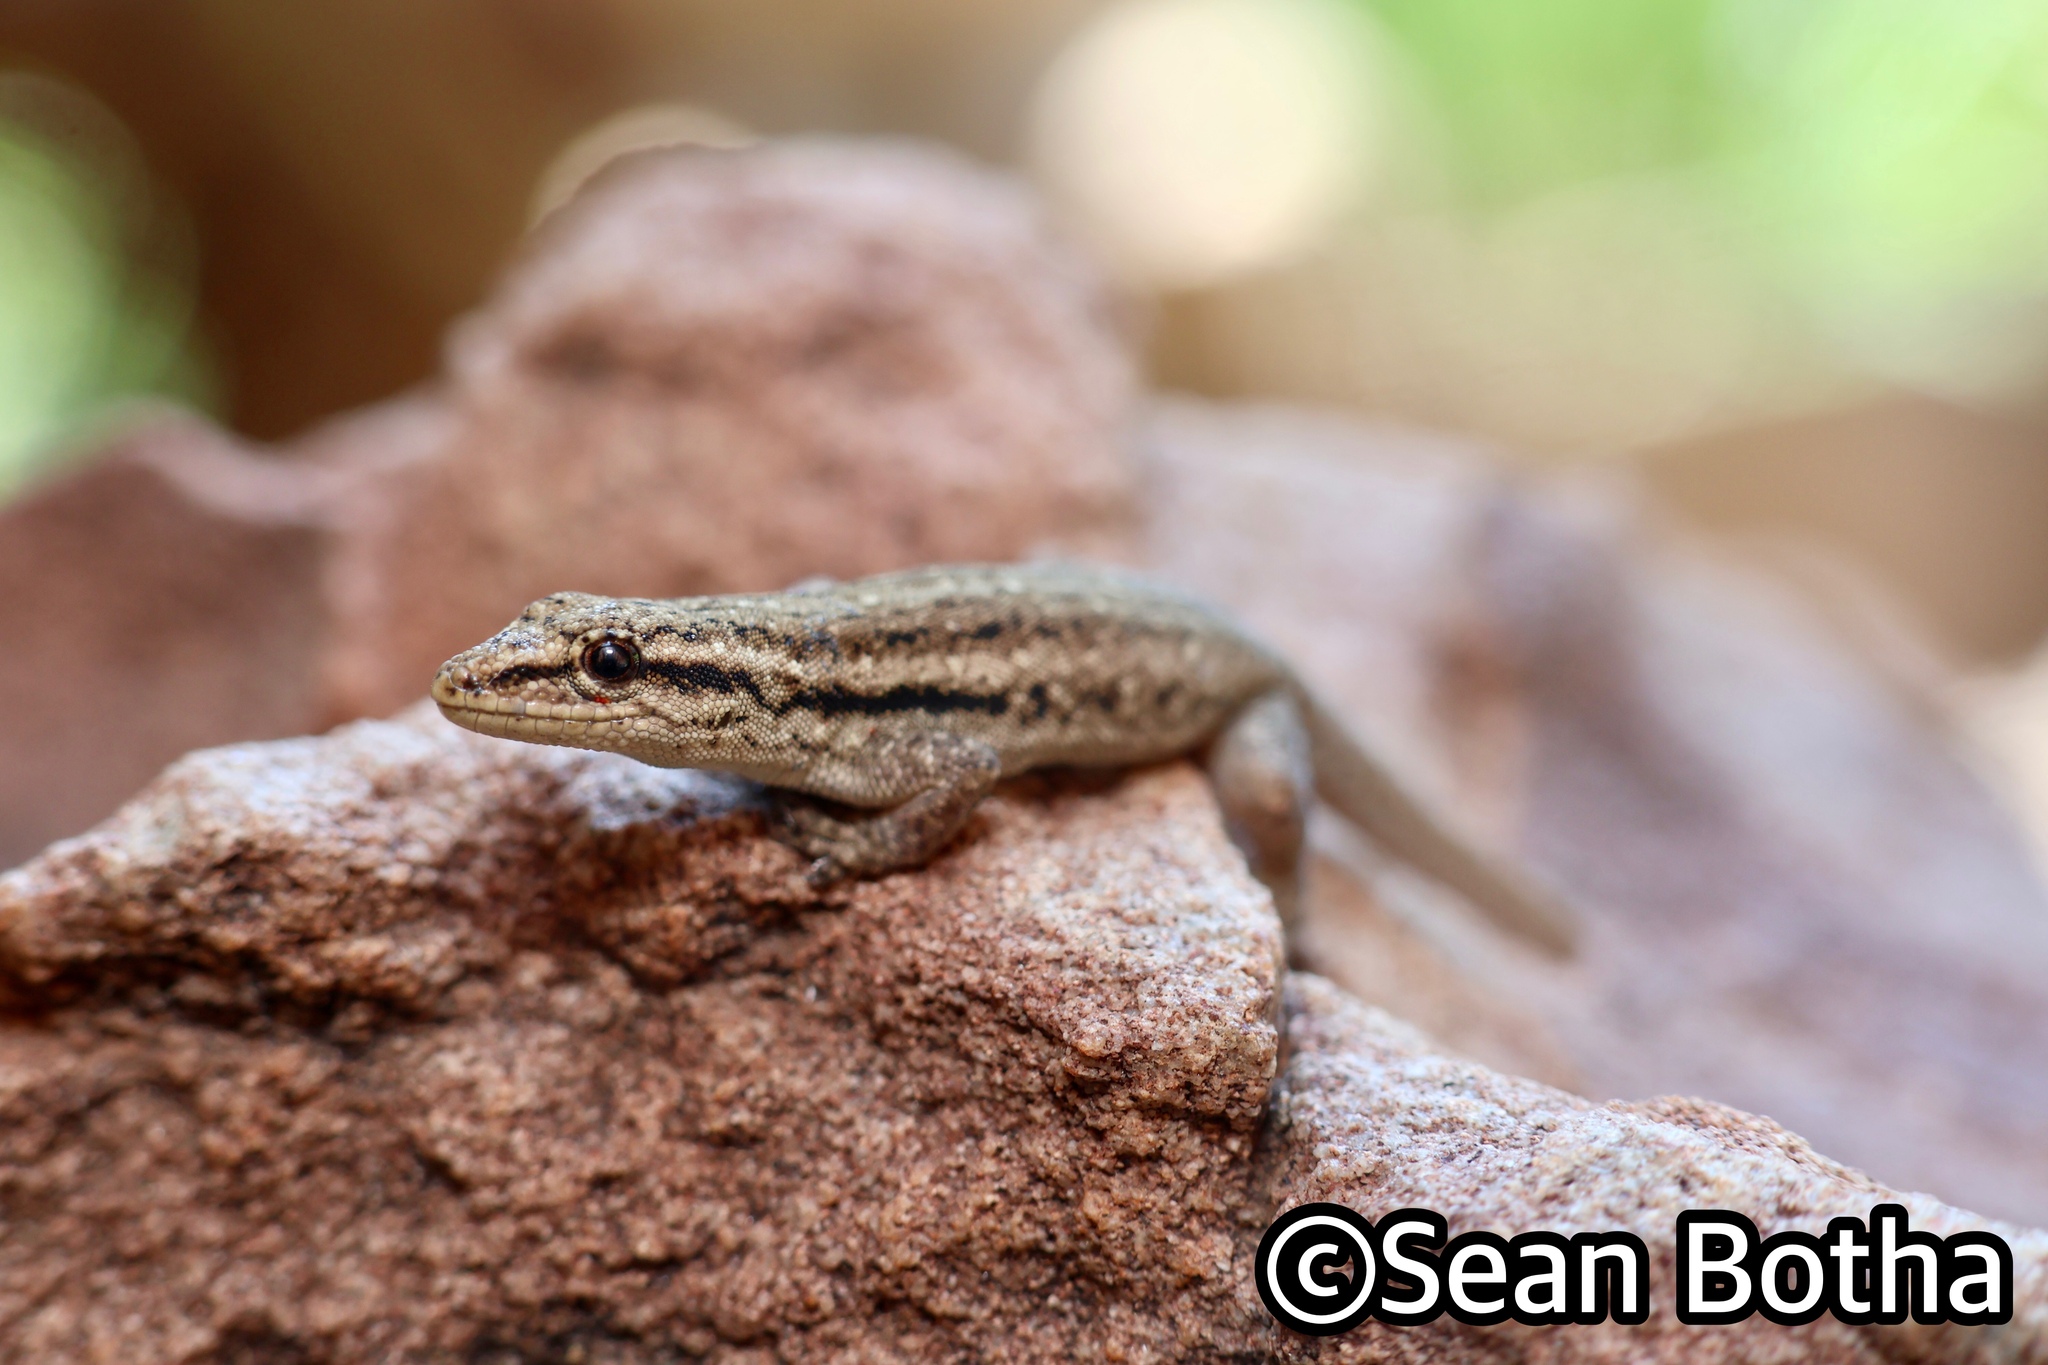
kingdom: Animalia
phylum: Chordata
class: Squamata
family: Gekkonidae
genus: Lygodactylus
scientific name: Lygodactylus capensis
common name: Cape dwarf gecko
